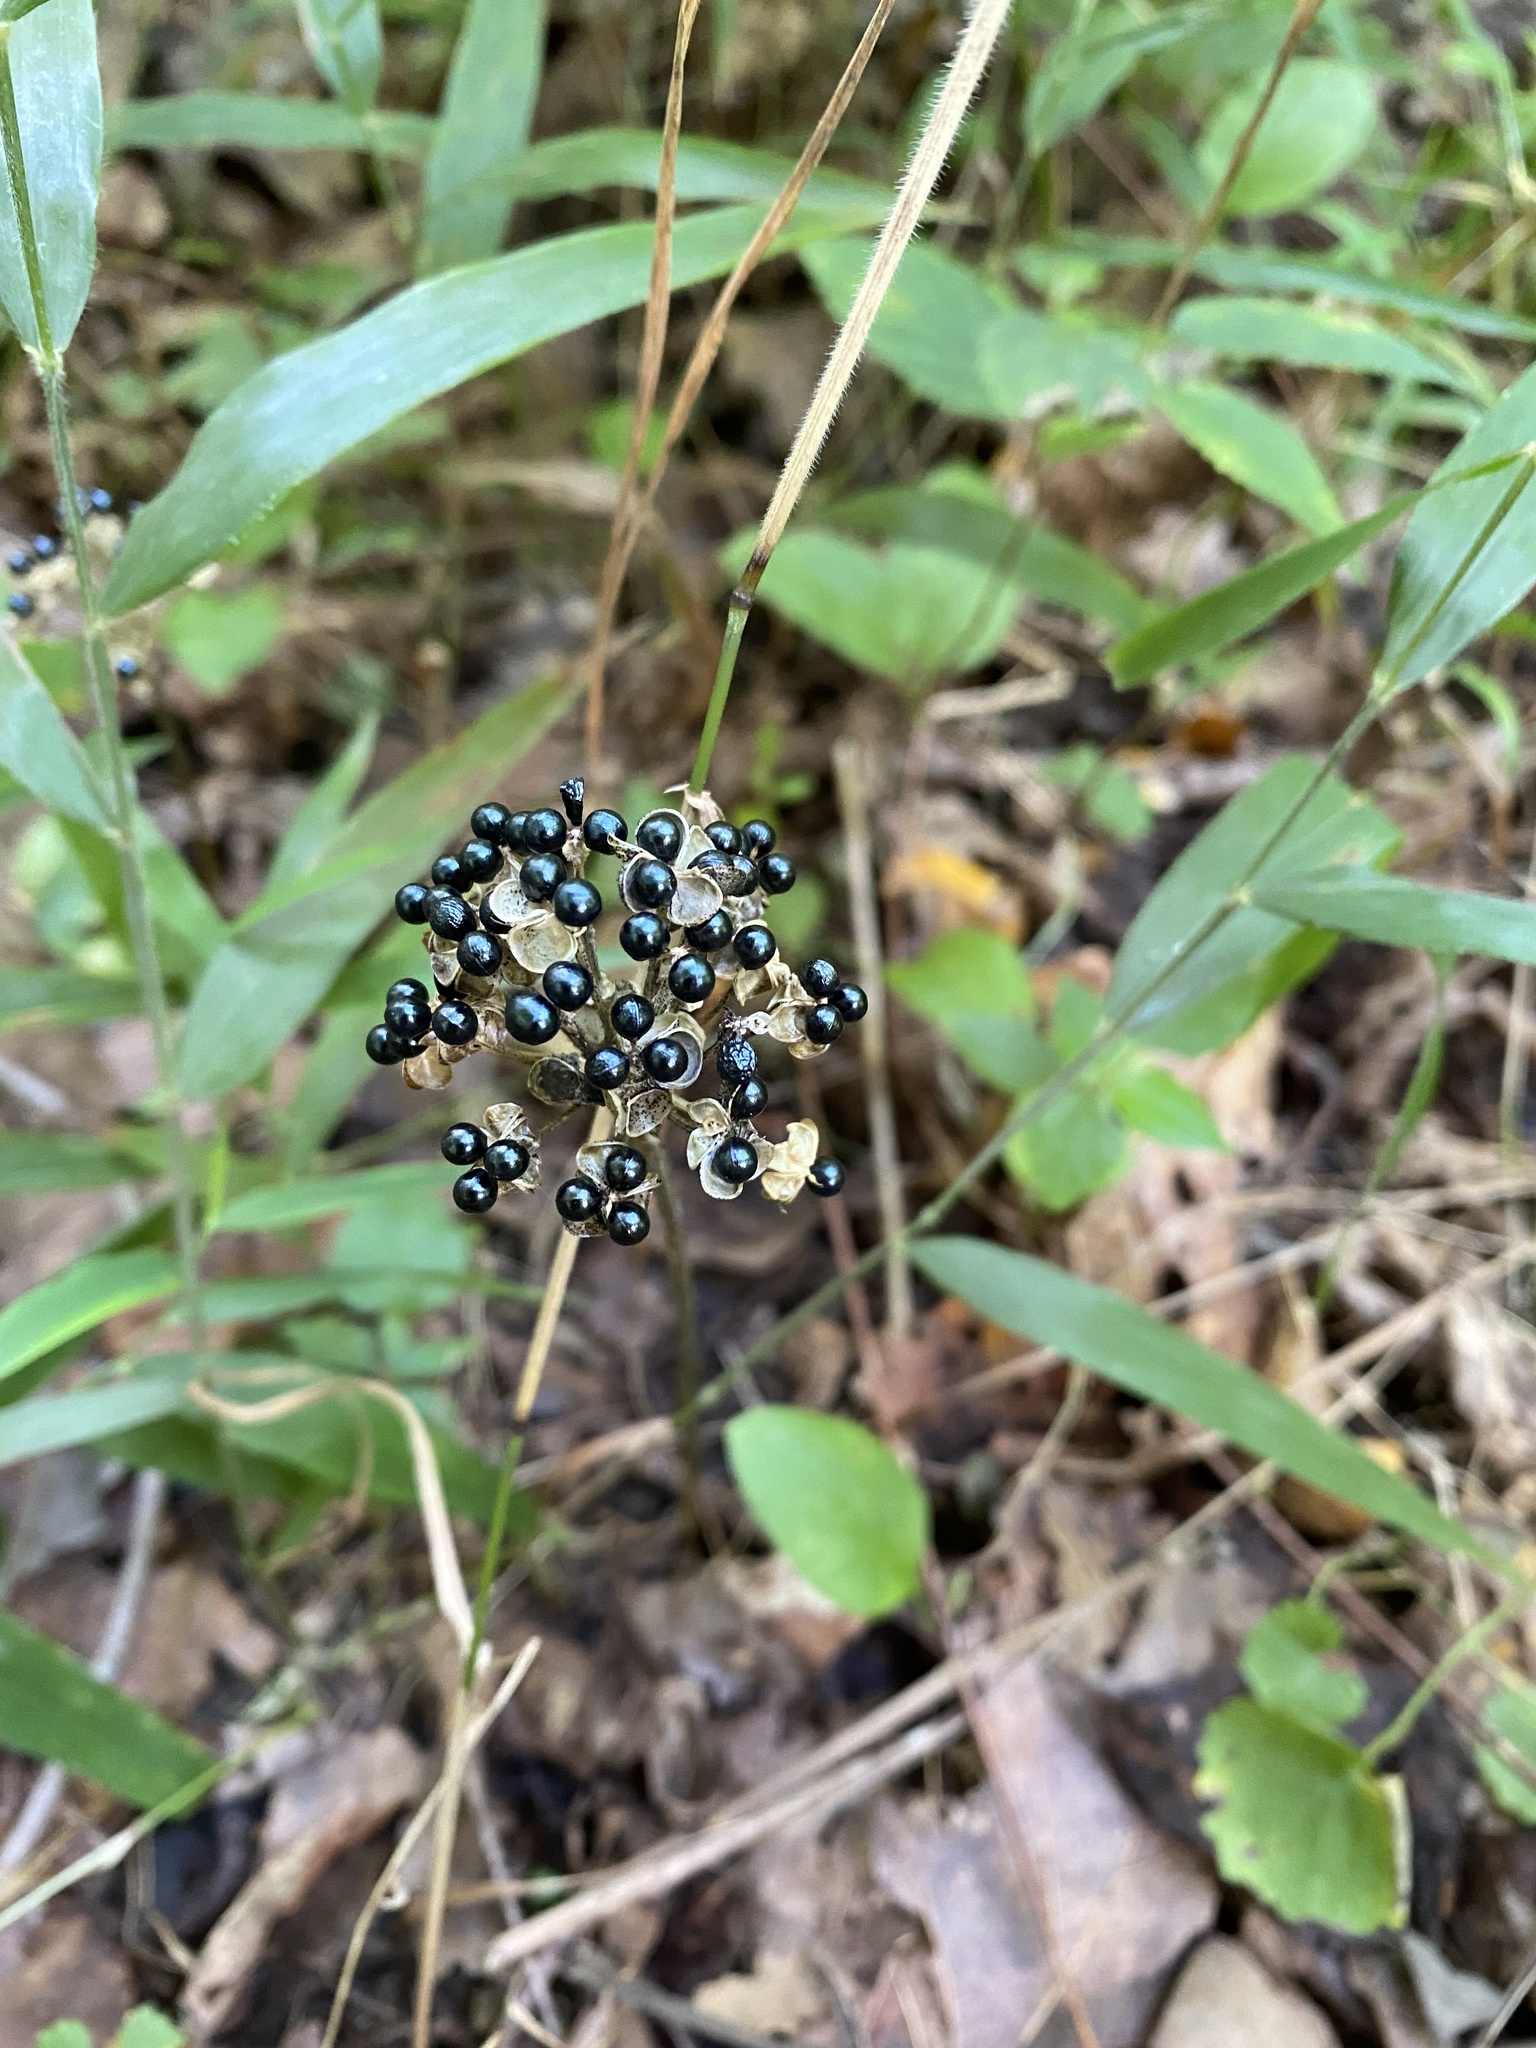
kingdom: Plantae
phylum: Tracheophyta
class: Liliopsida
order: Asparagales
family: Amaryllidaceae
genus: Allium
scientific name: Allium tricoccum
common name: Ramp
